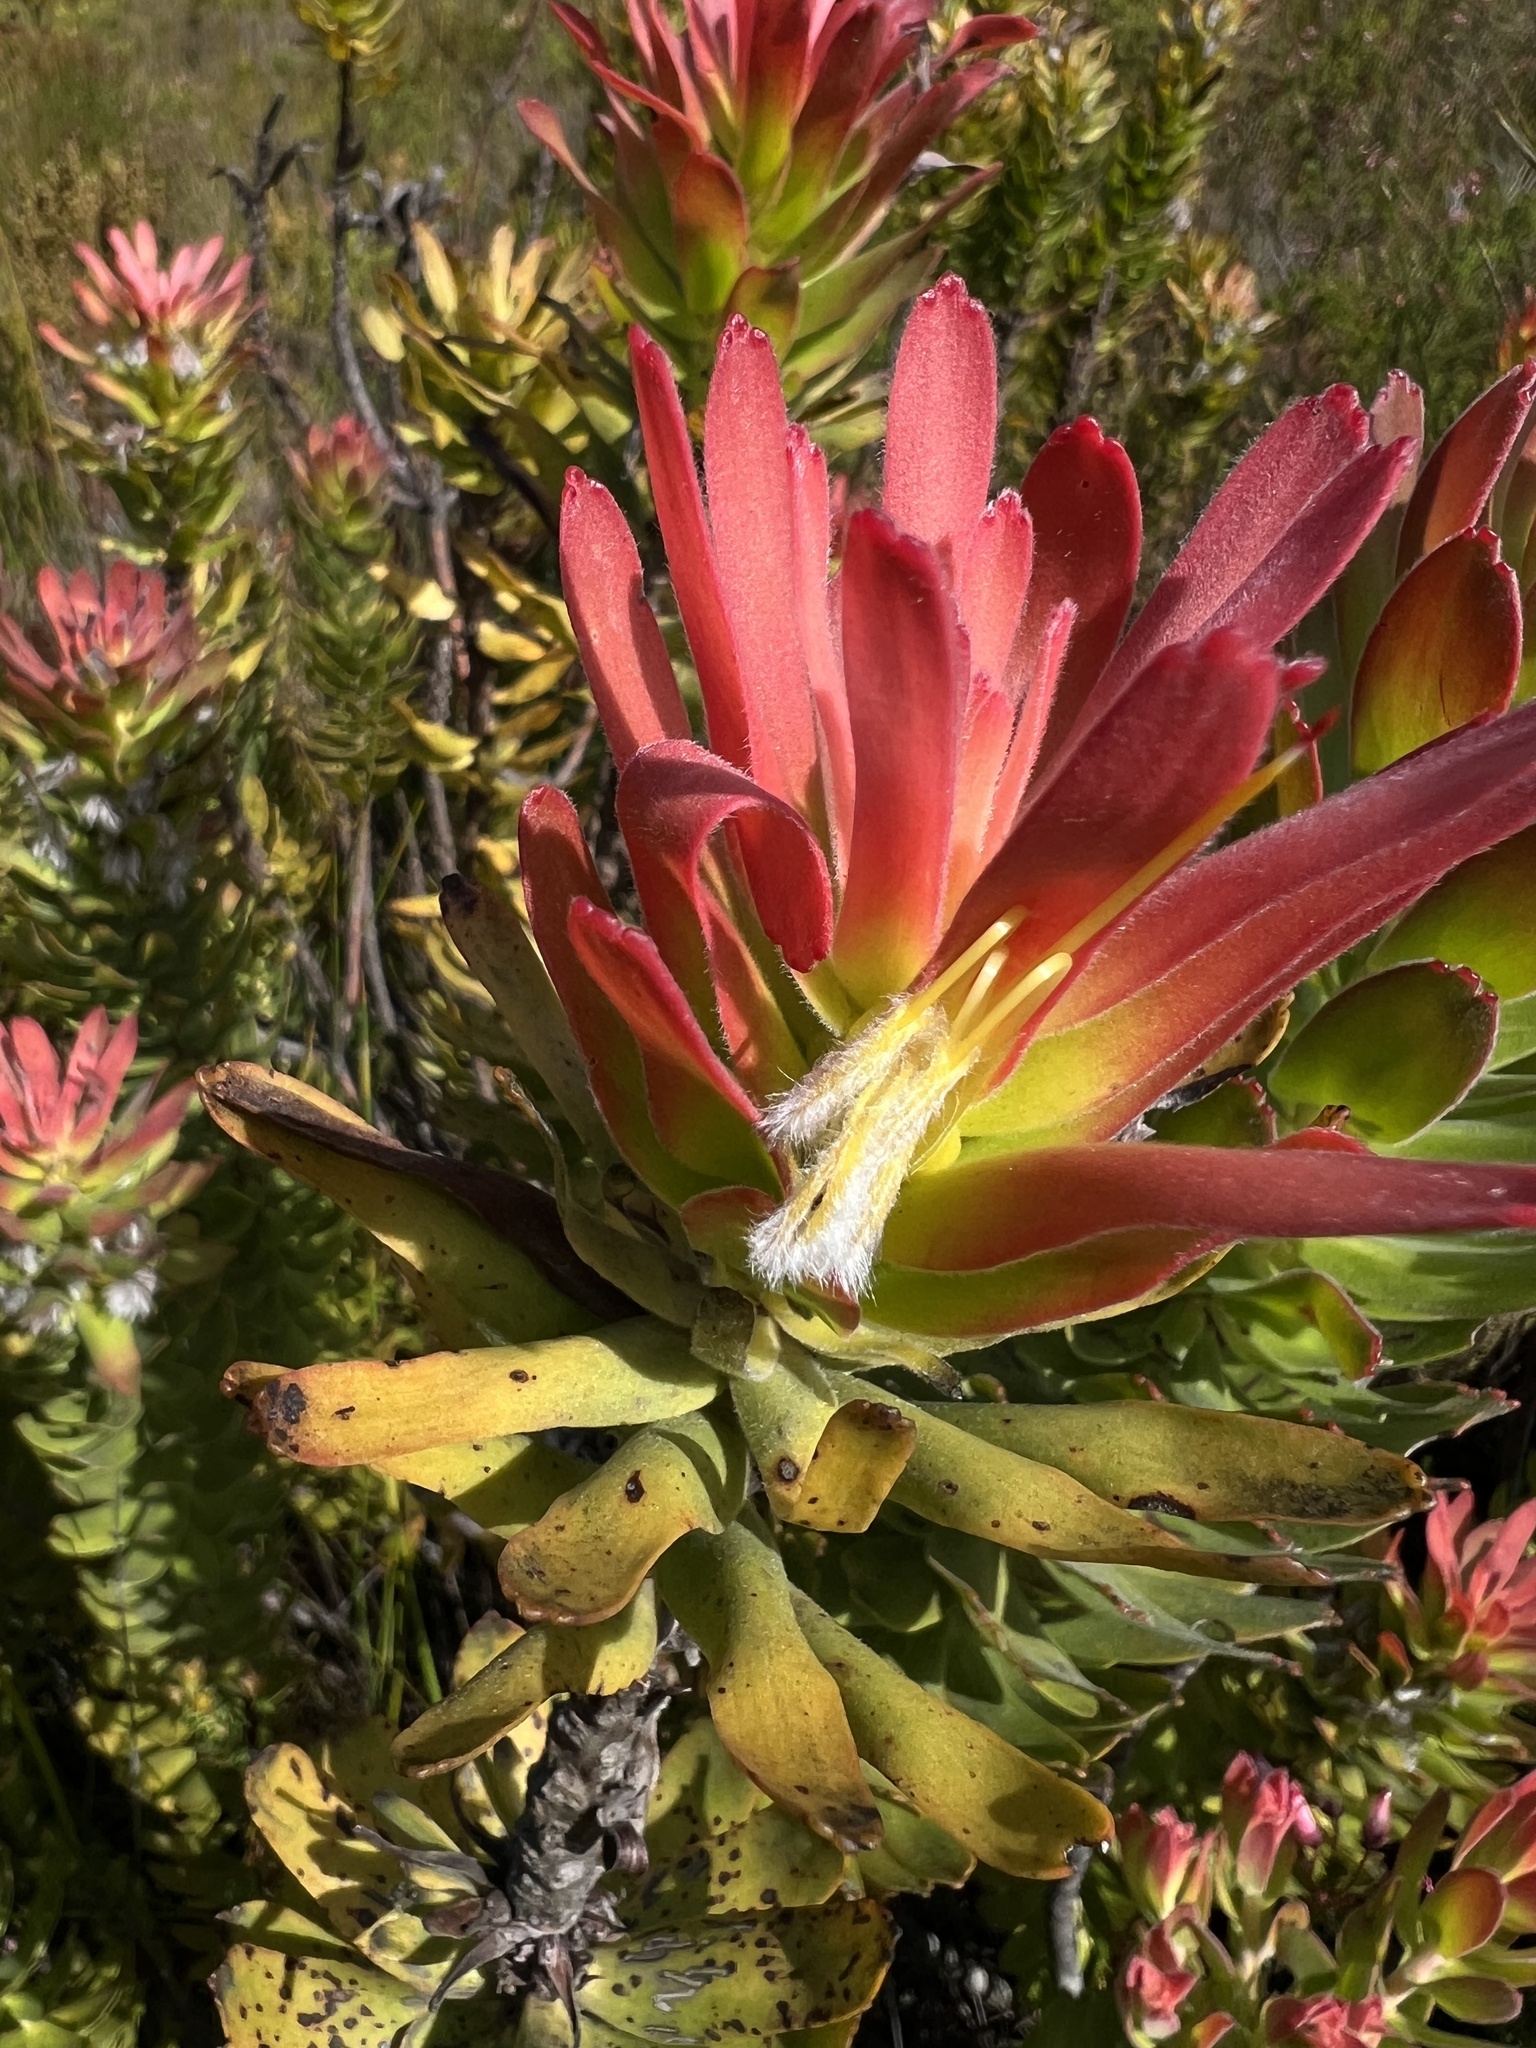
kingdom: Plantae
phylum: Tracheophyta
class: Magnoliopsida
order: Proteales
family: Proteaceae
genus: Mimetes
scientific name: Mimetes cucullatus
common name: Common pagoda
